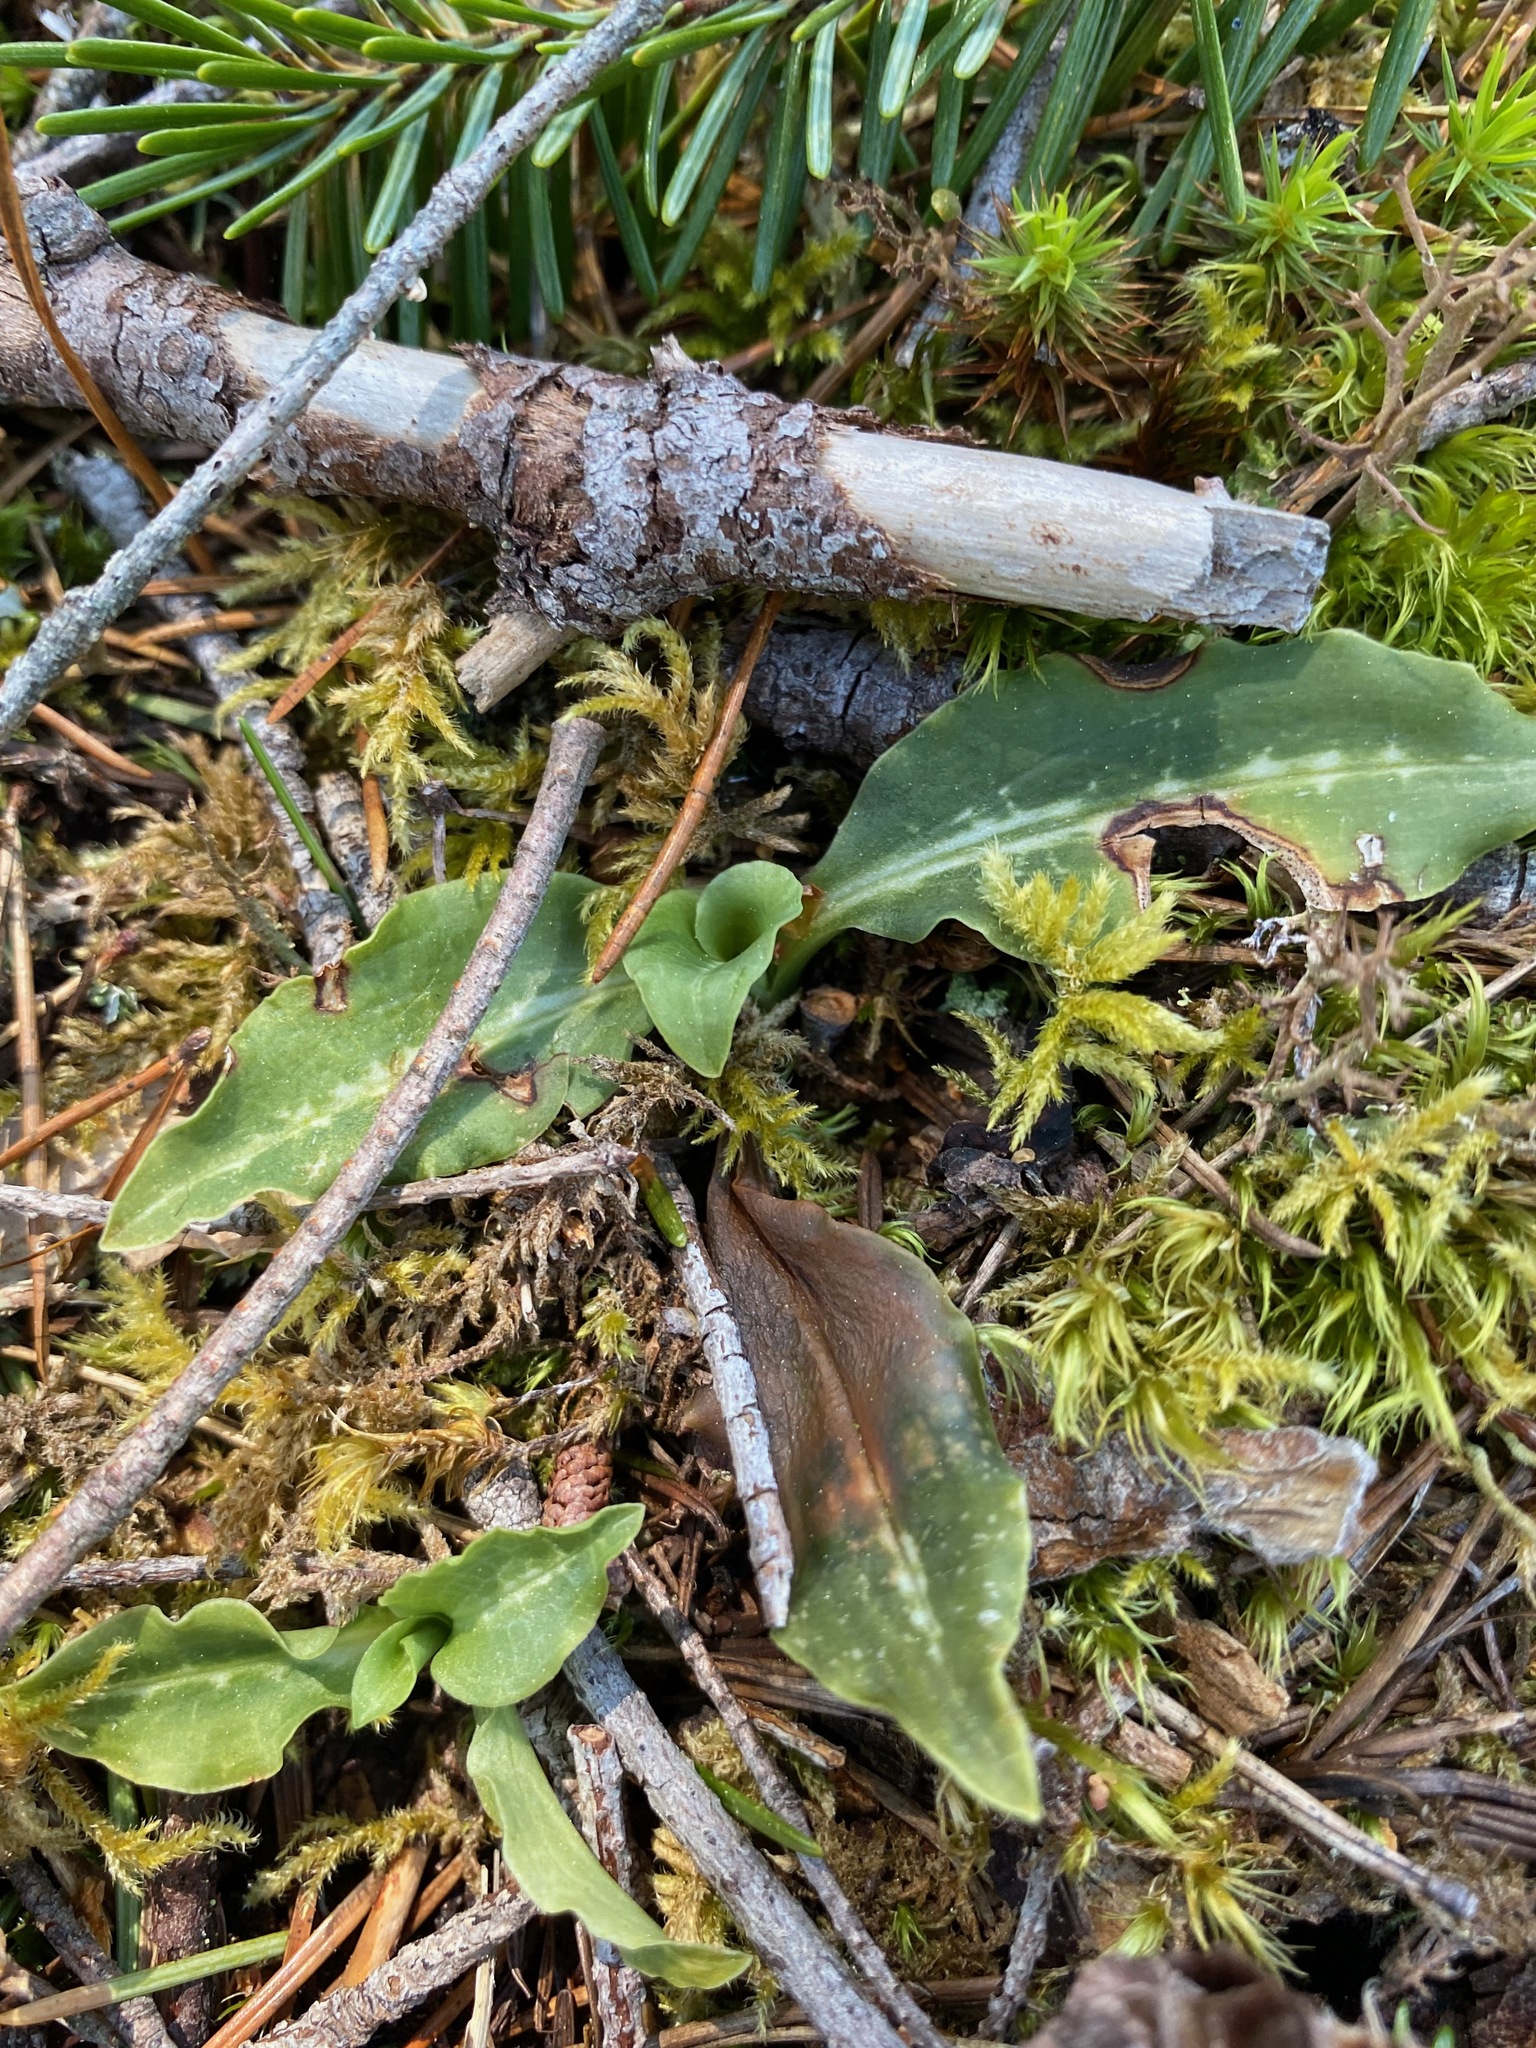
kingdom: Plantae
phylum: Tracheophyta
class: Liliopsida
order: Asparagales
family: Orchidaceae
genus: Goodyera
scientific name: Goodyera oblongifolia
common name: Giant rattlesnake-plantain
